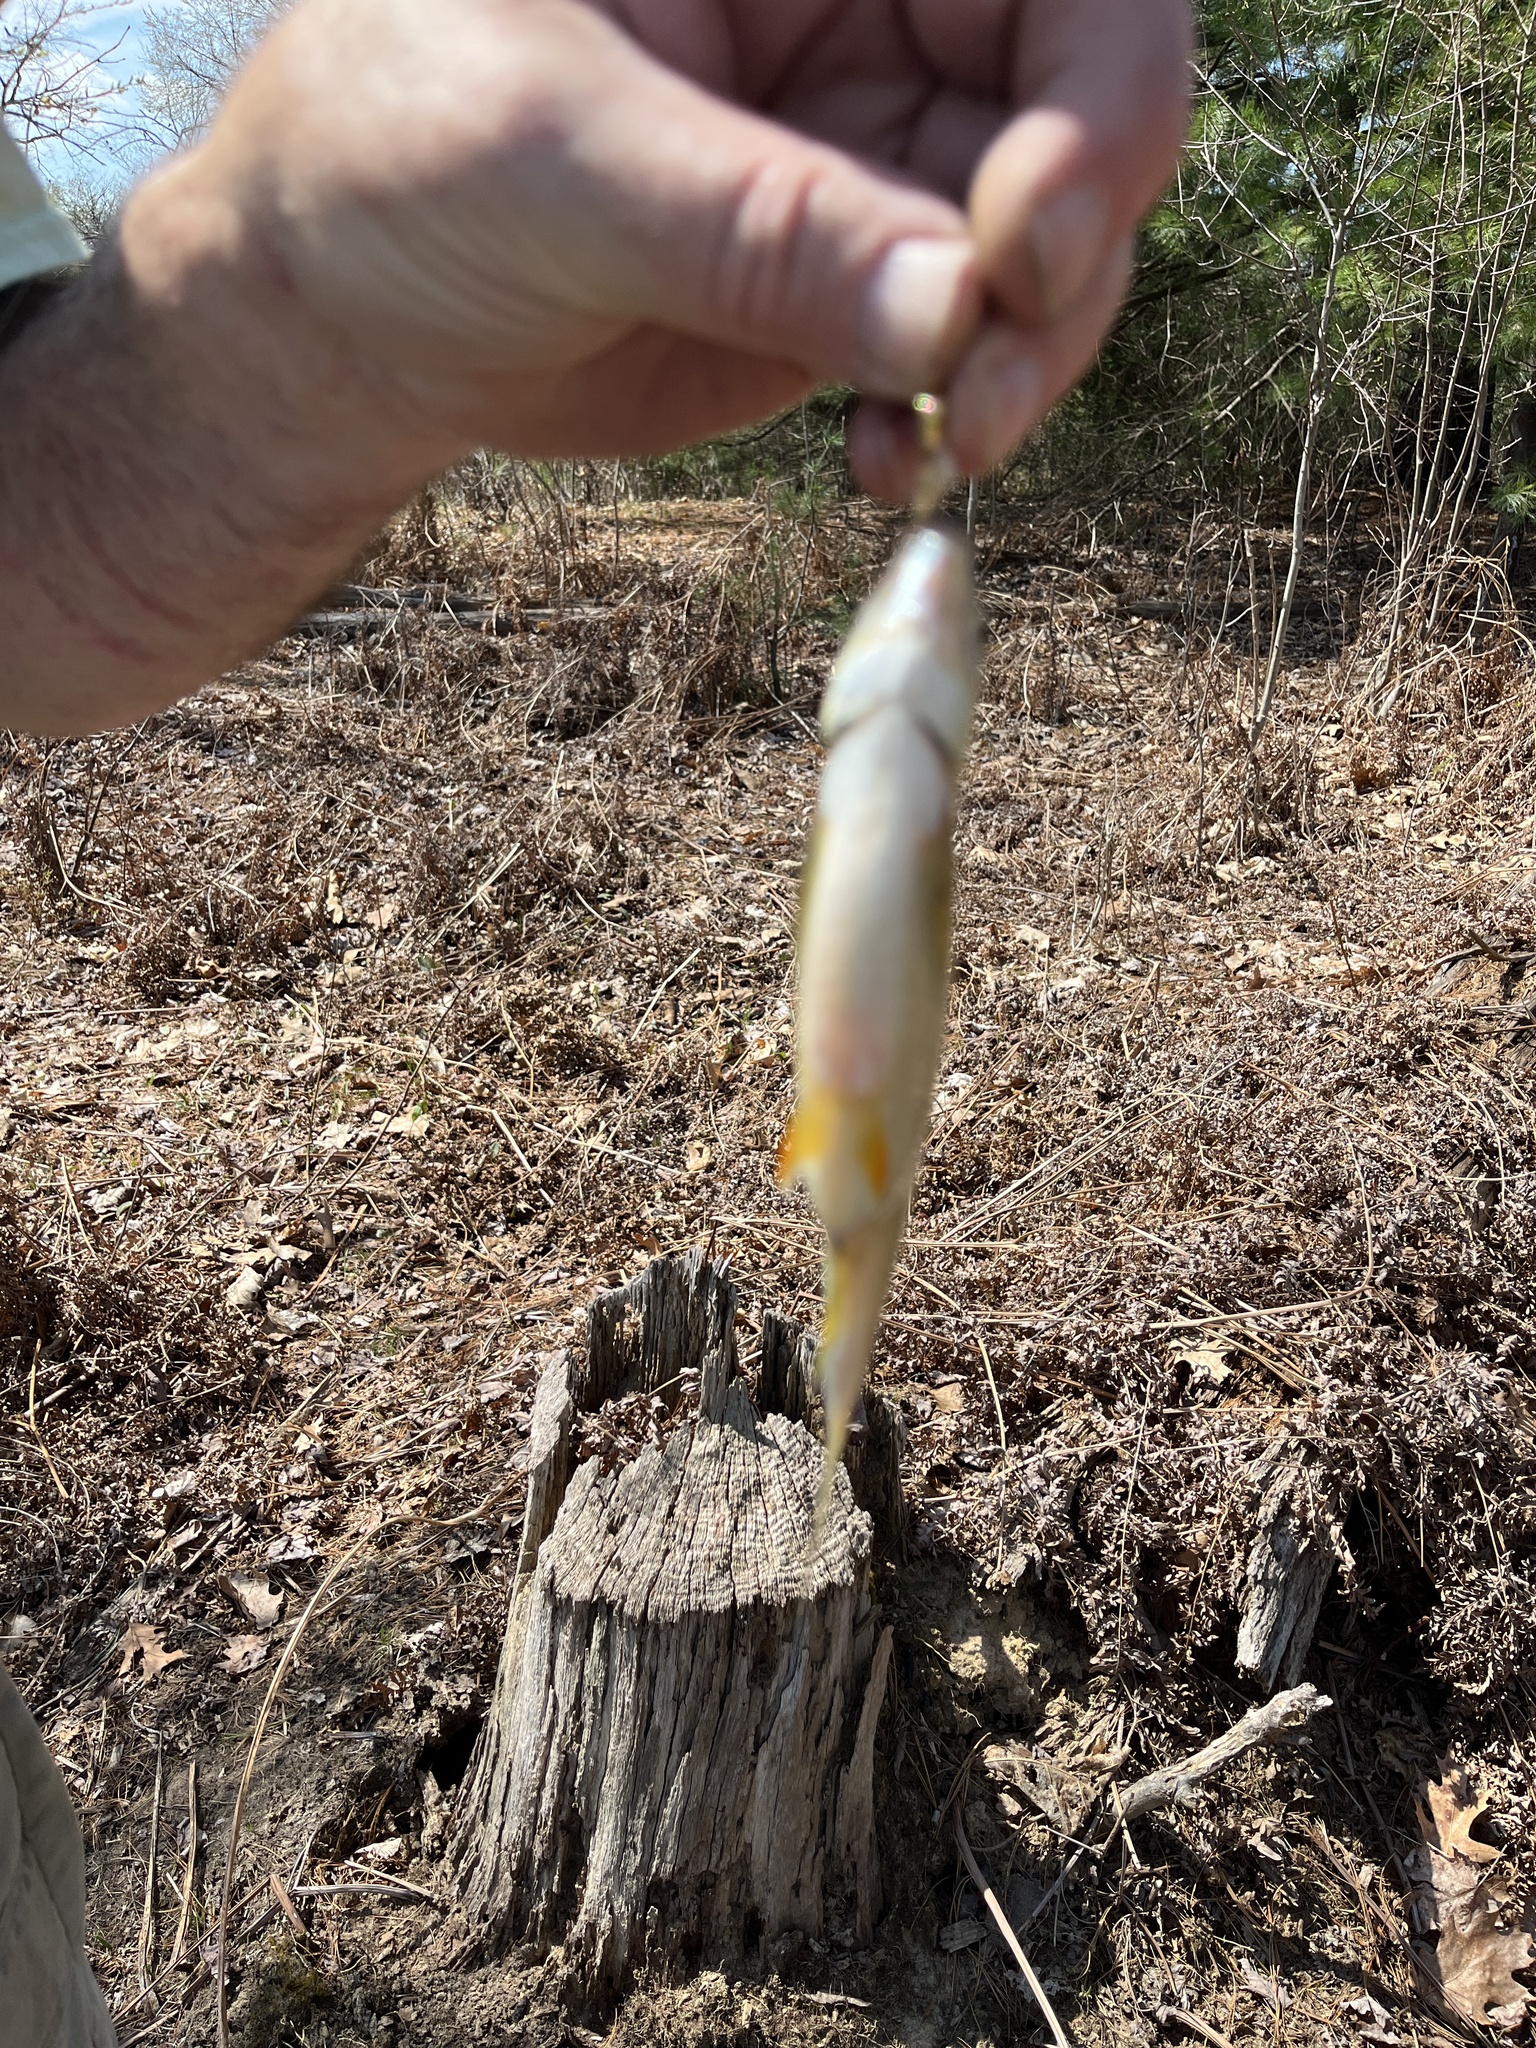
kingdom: Animalia
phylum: Chordata
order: Cypriniformes
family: Cyprinidae
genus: Notemigonus
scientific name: Notemigonus crysoleucas
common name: Golden shiner
